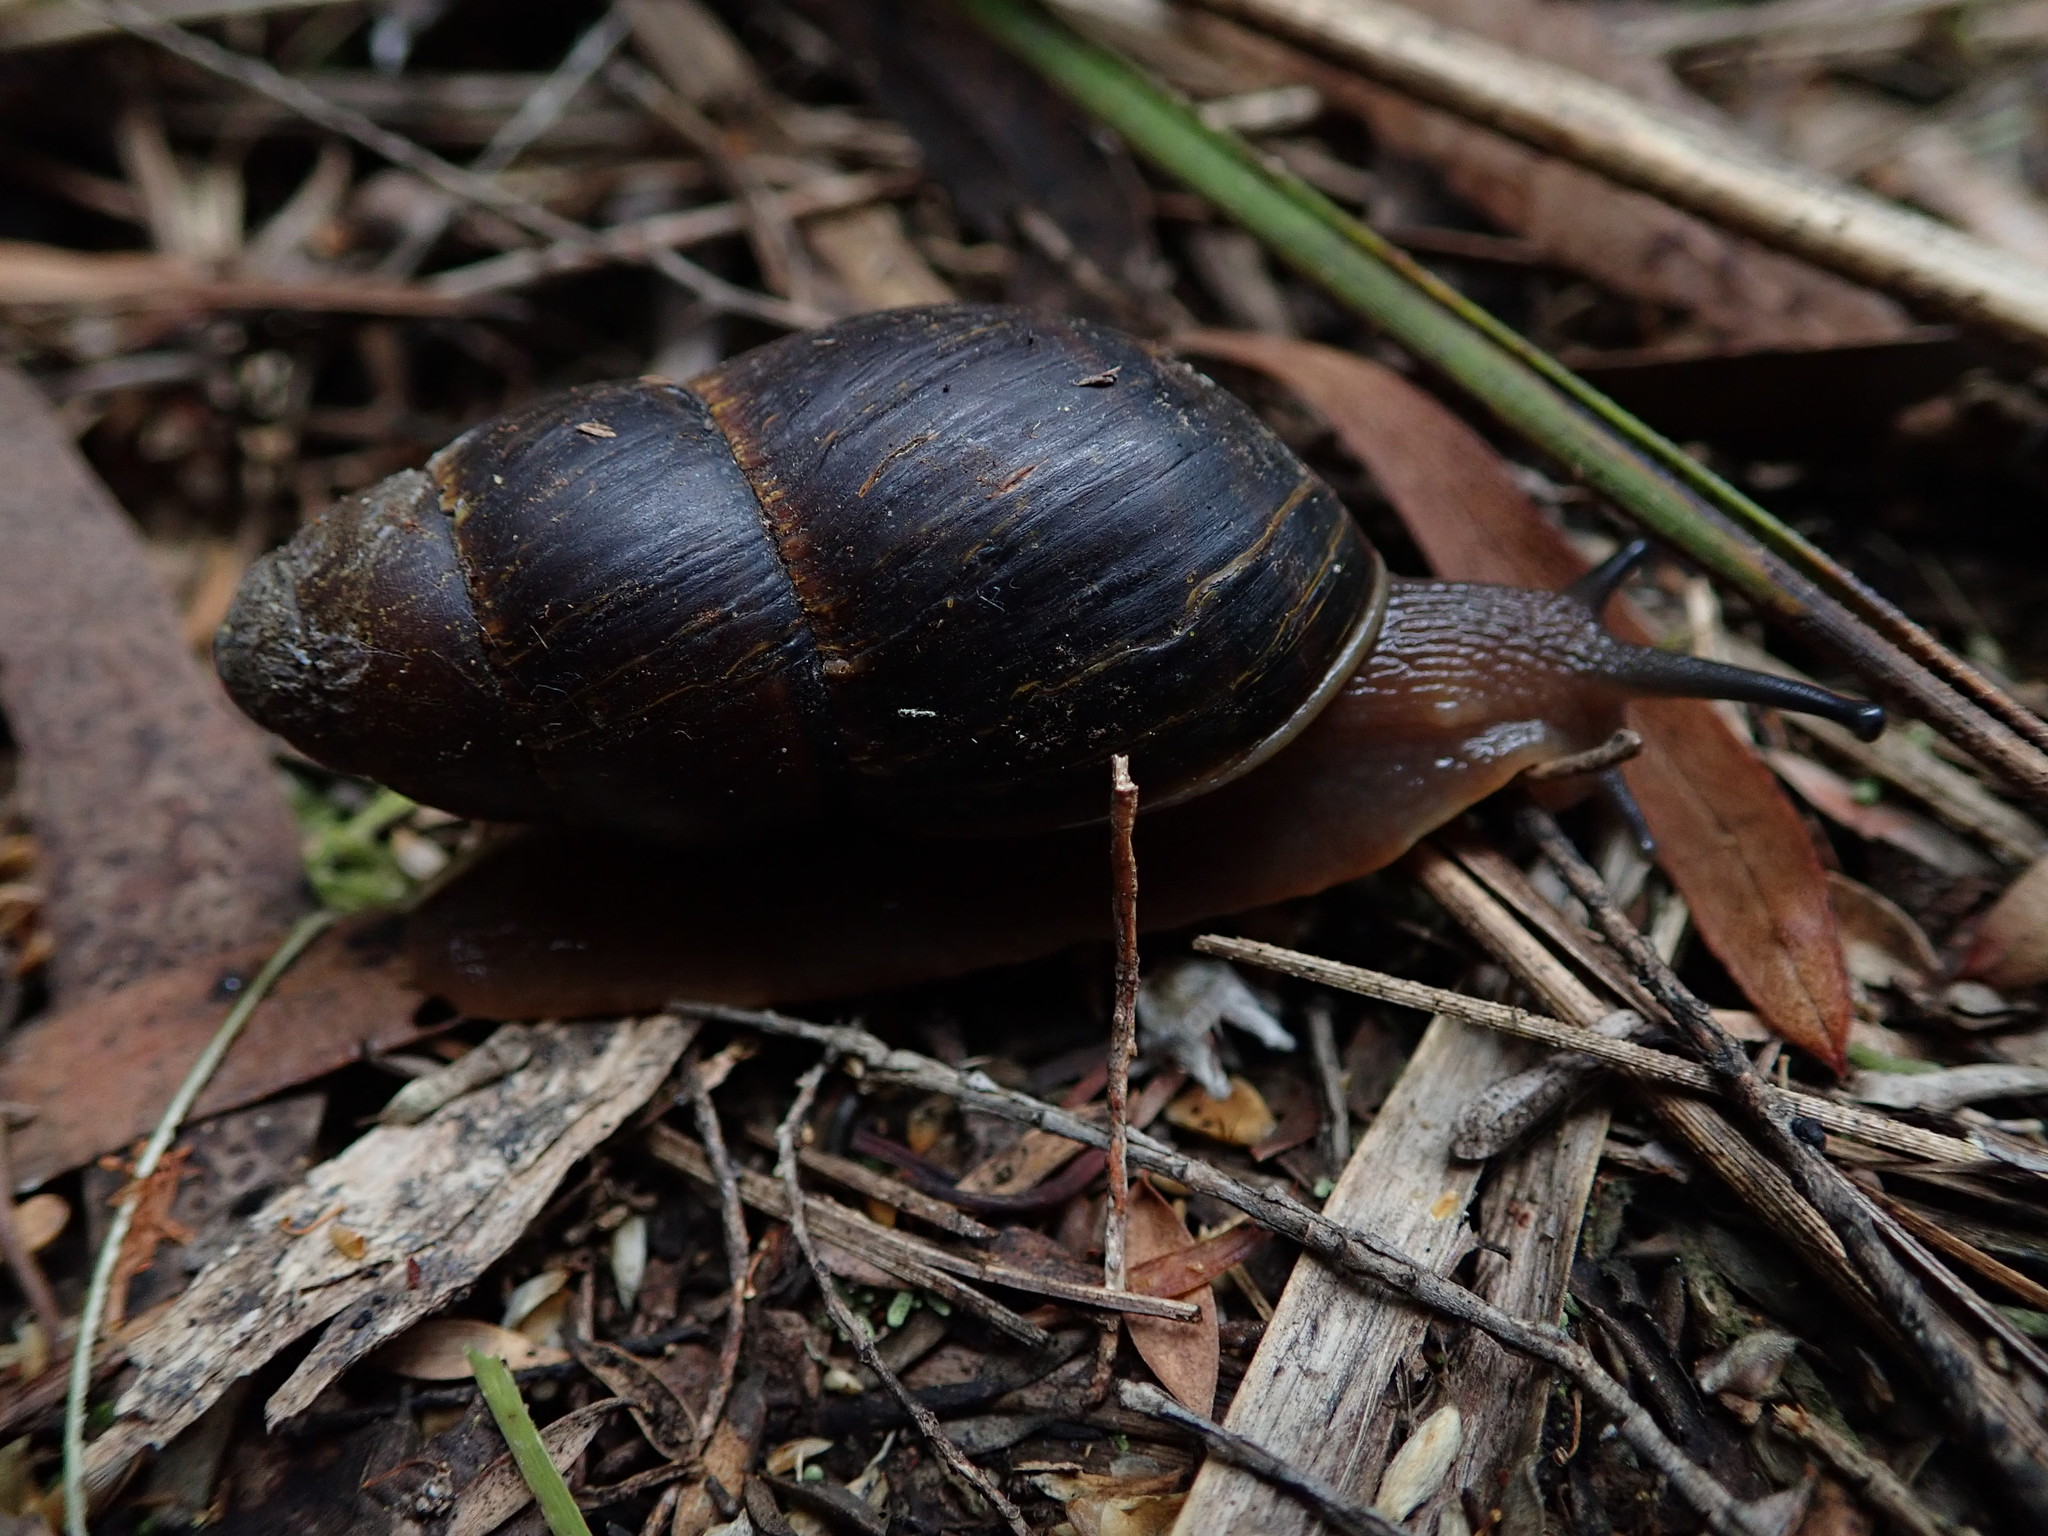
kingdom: Animalia
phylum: Mollusca
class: Gastropoda
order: Stylommatophora
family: Caryodidae
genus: Caryodes
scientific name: Caryodes dufresnii
